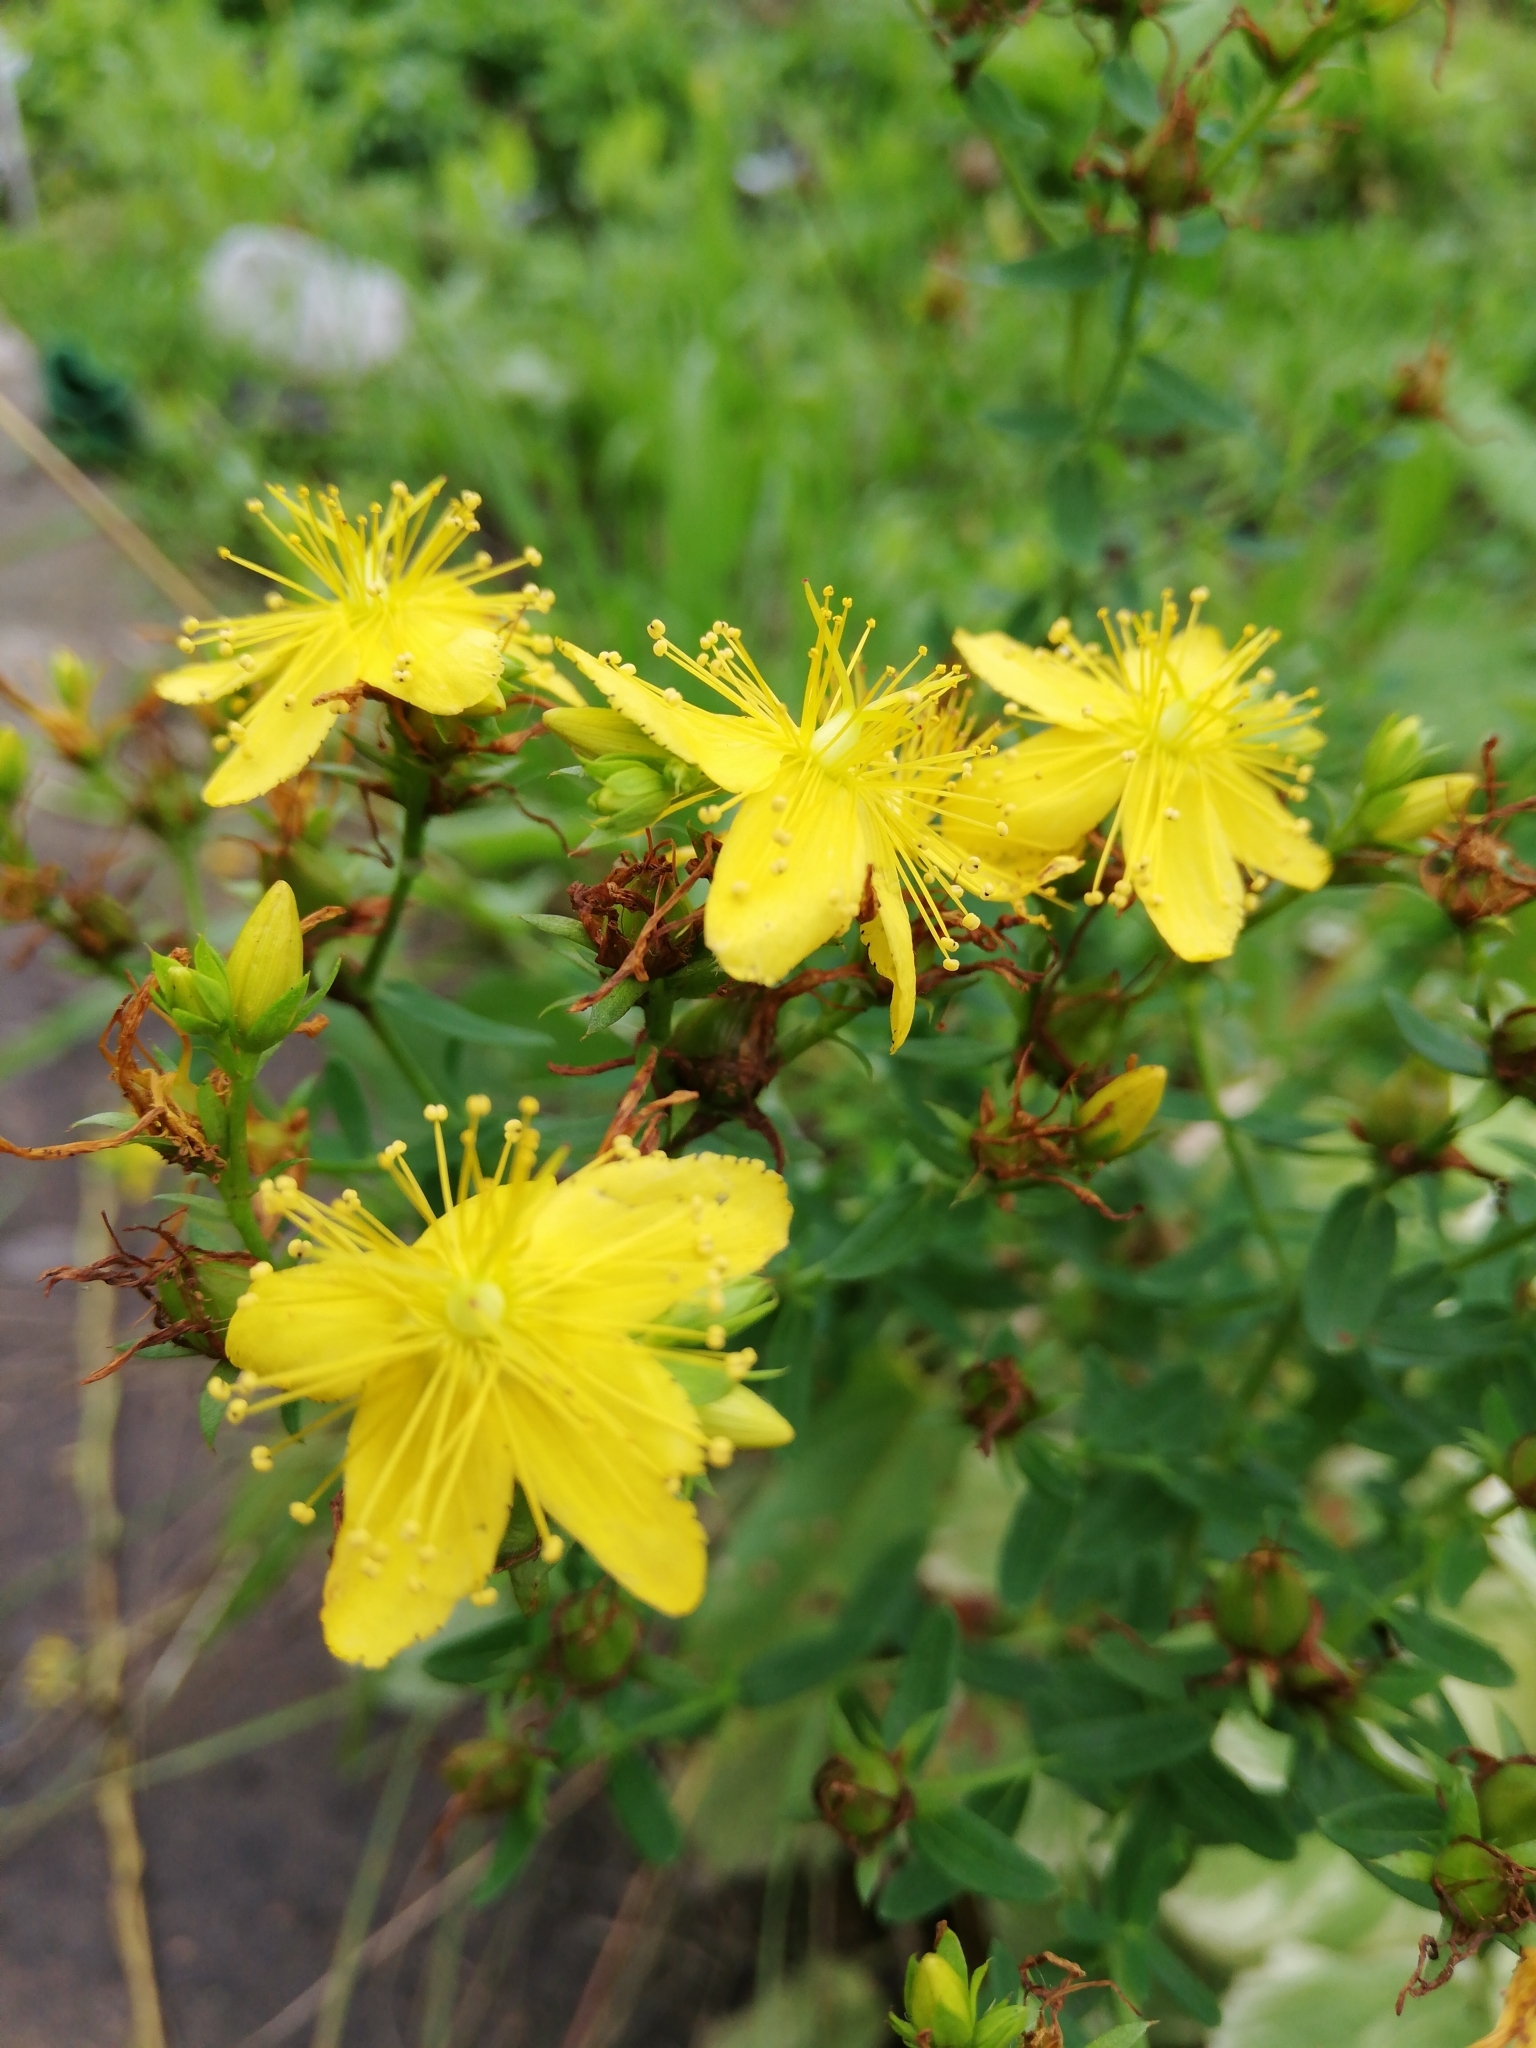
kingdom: Plantae
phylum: Tracheophyta
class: Magnoliopsida
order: Malpighiales
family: Hypericaceae
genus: Hypericum
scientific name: Hypericum perforatum
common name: Common st. johnswort
